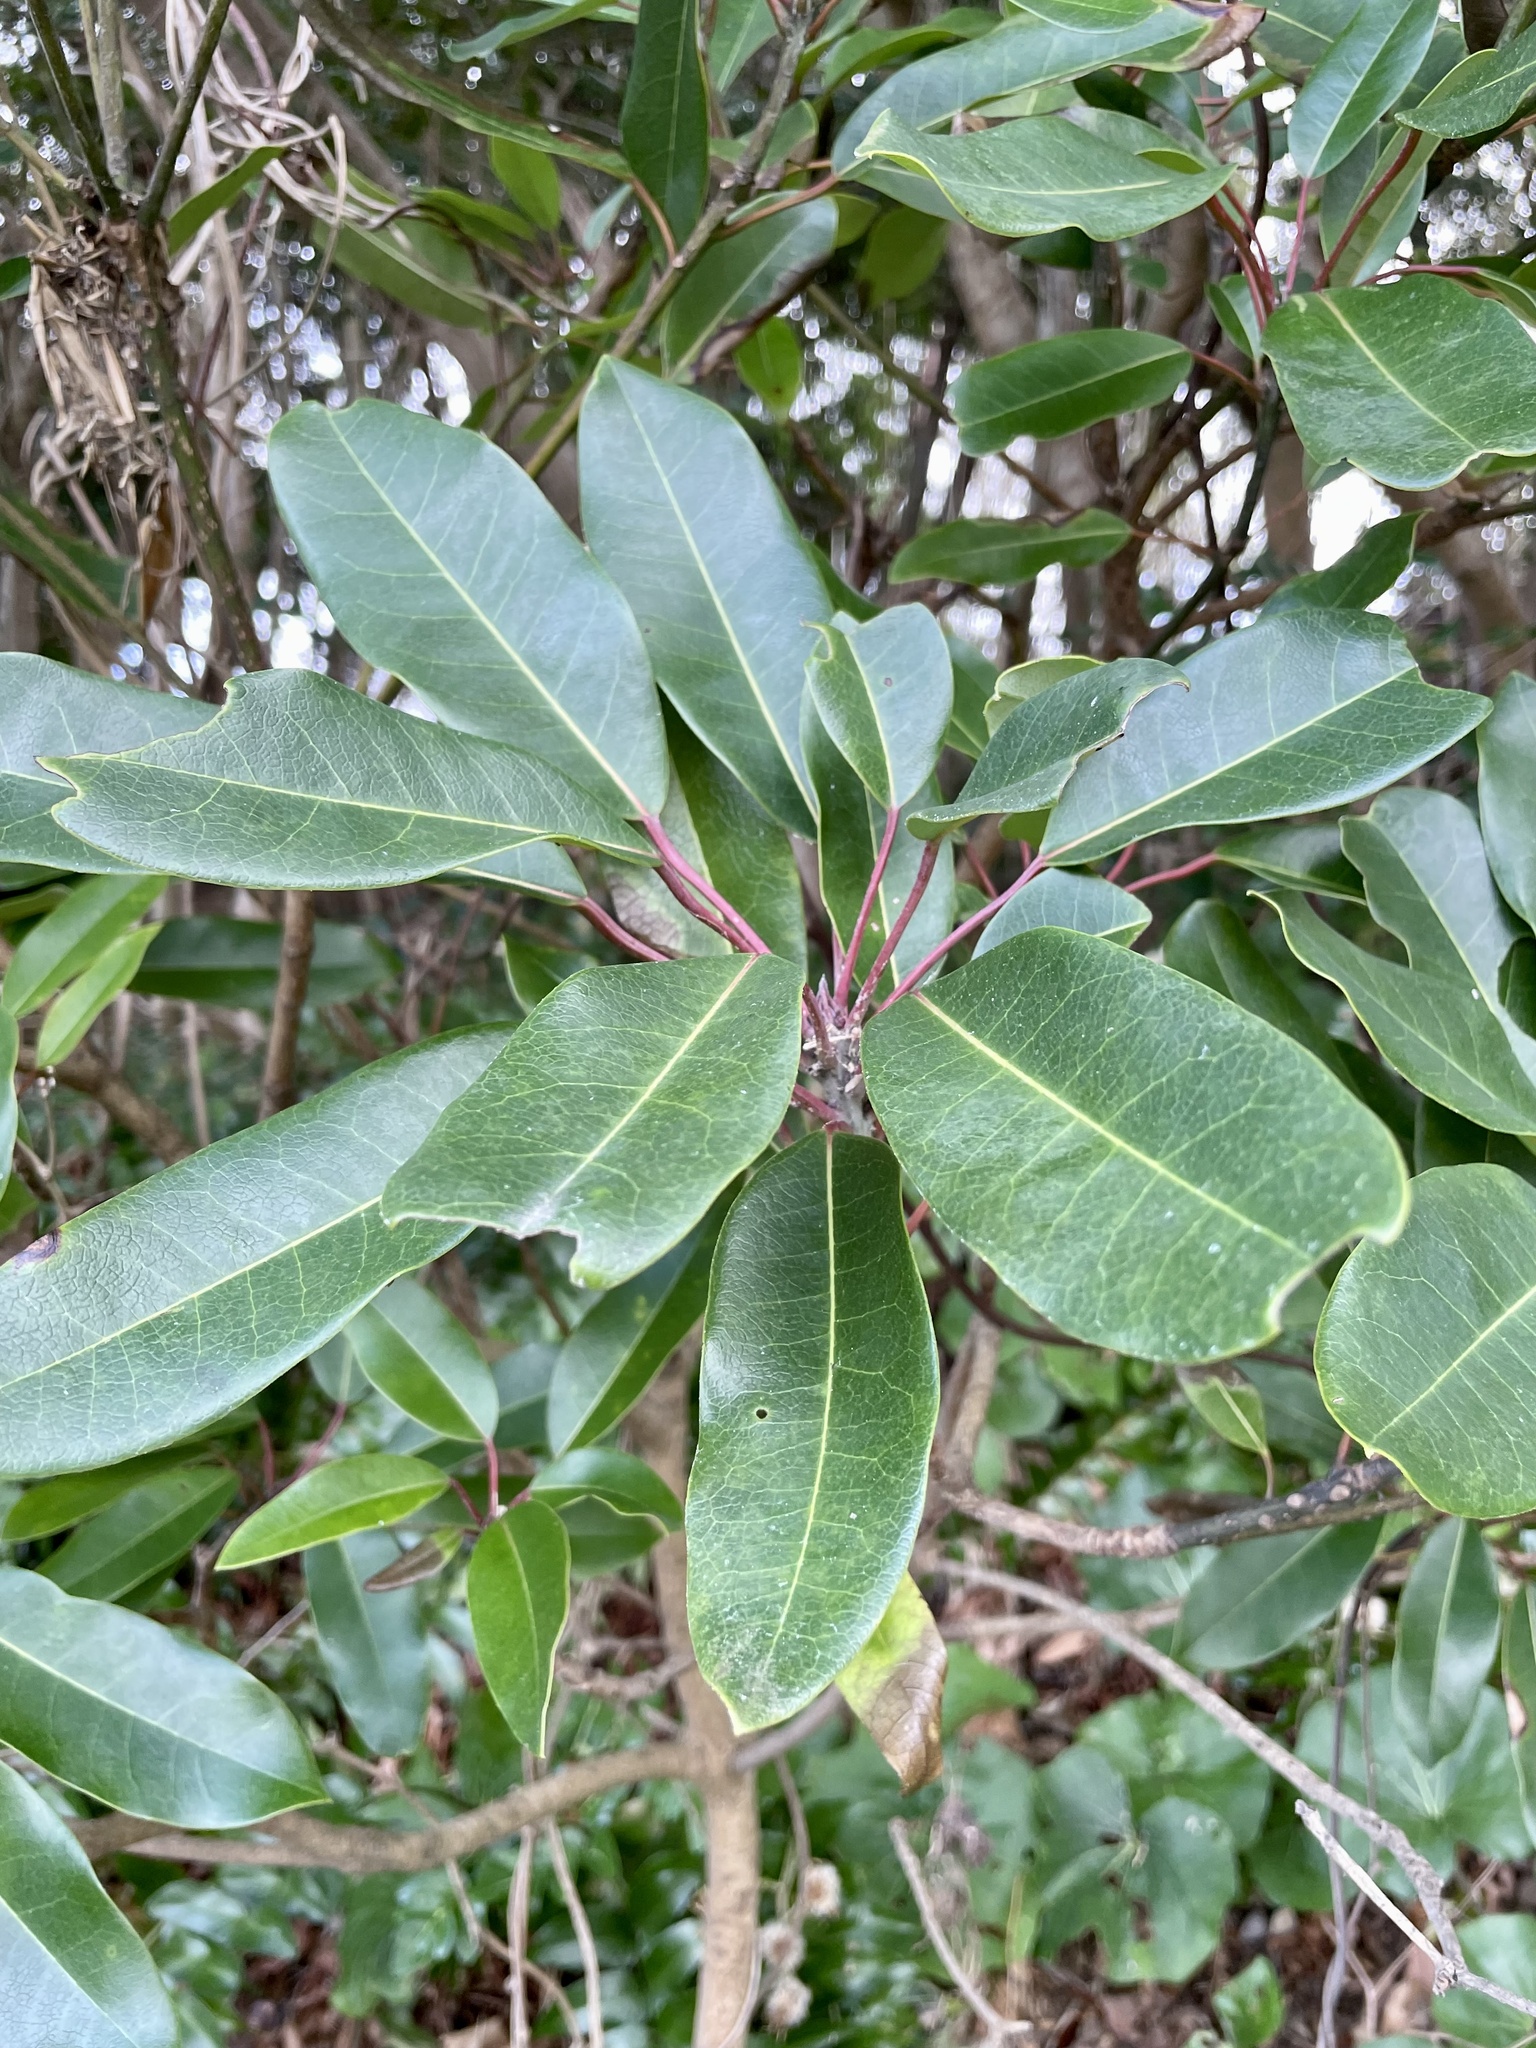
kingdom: Plantae
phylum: Tracheophyta
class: Magnoliopsida
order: Saxifragales
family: Daphniphyllaceae
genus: Daphniphyllum
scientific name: Daphniphyllum teijsmannii
